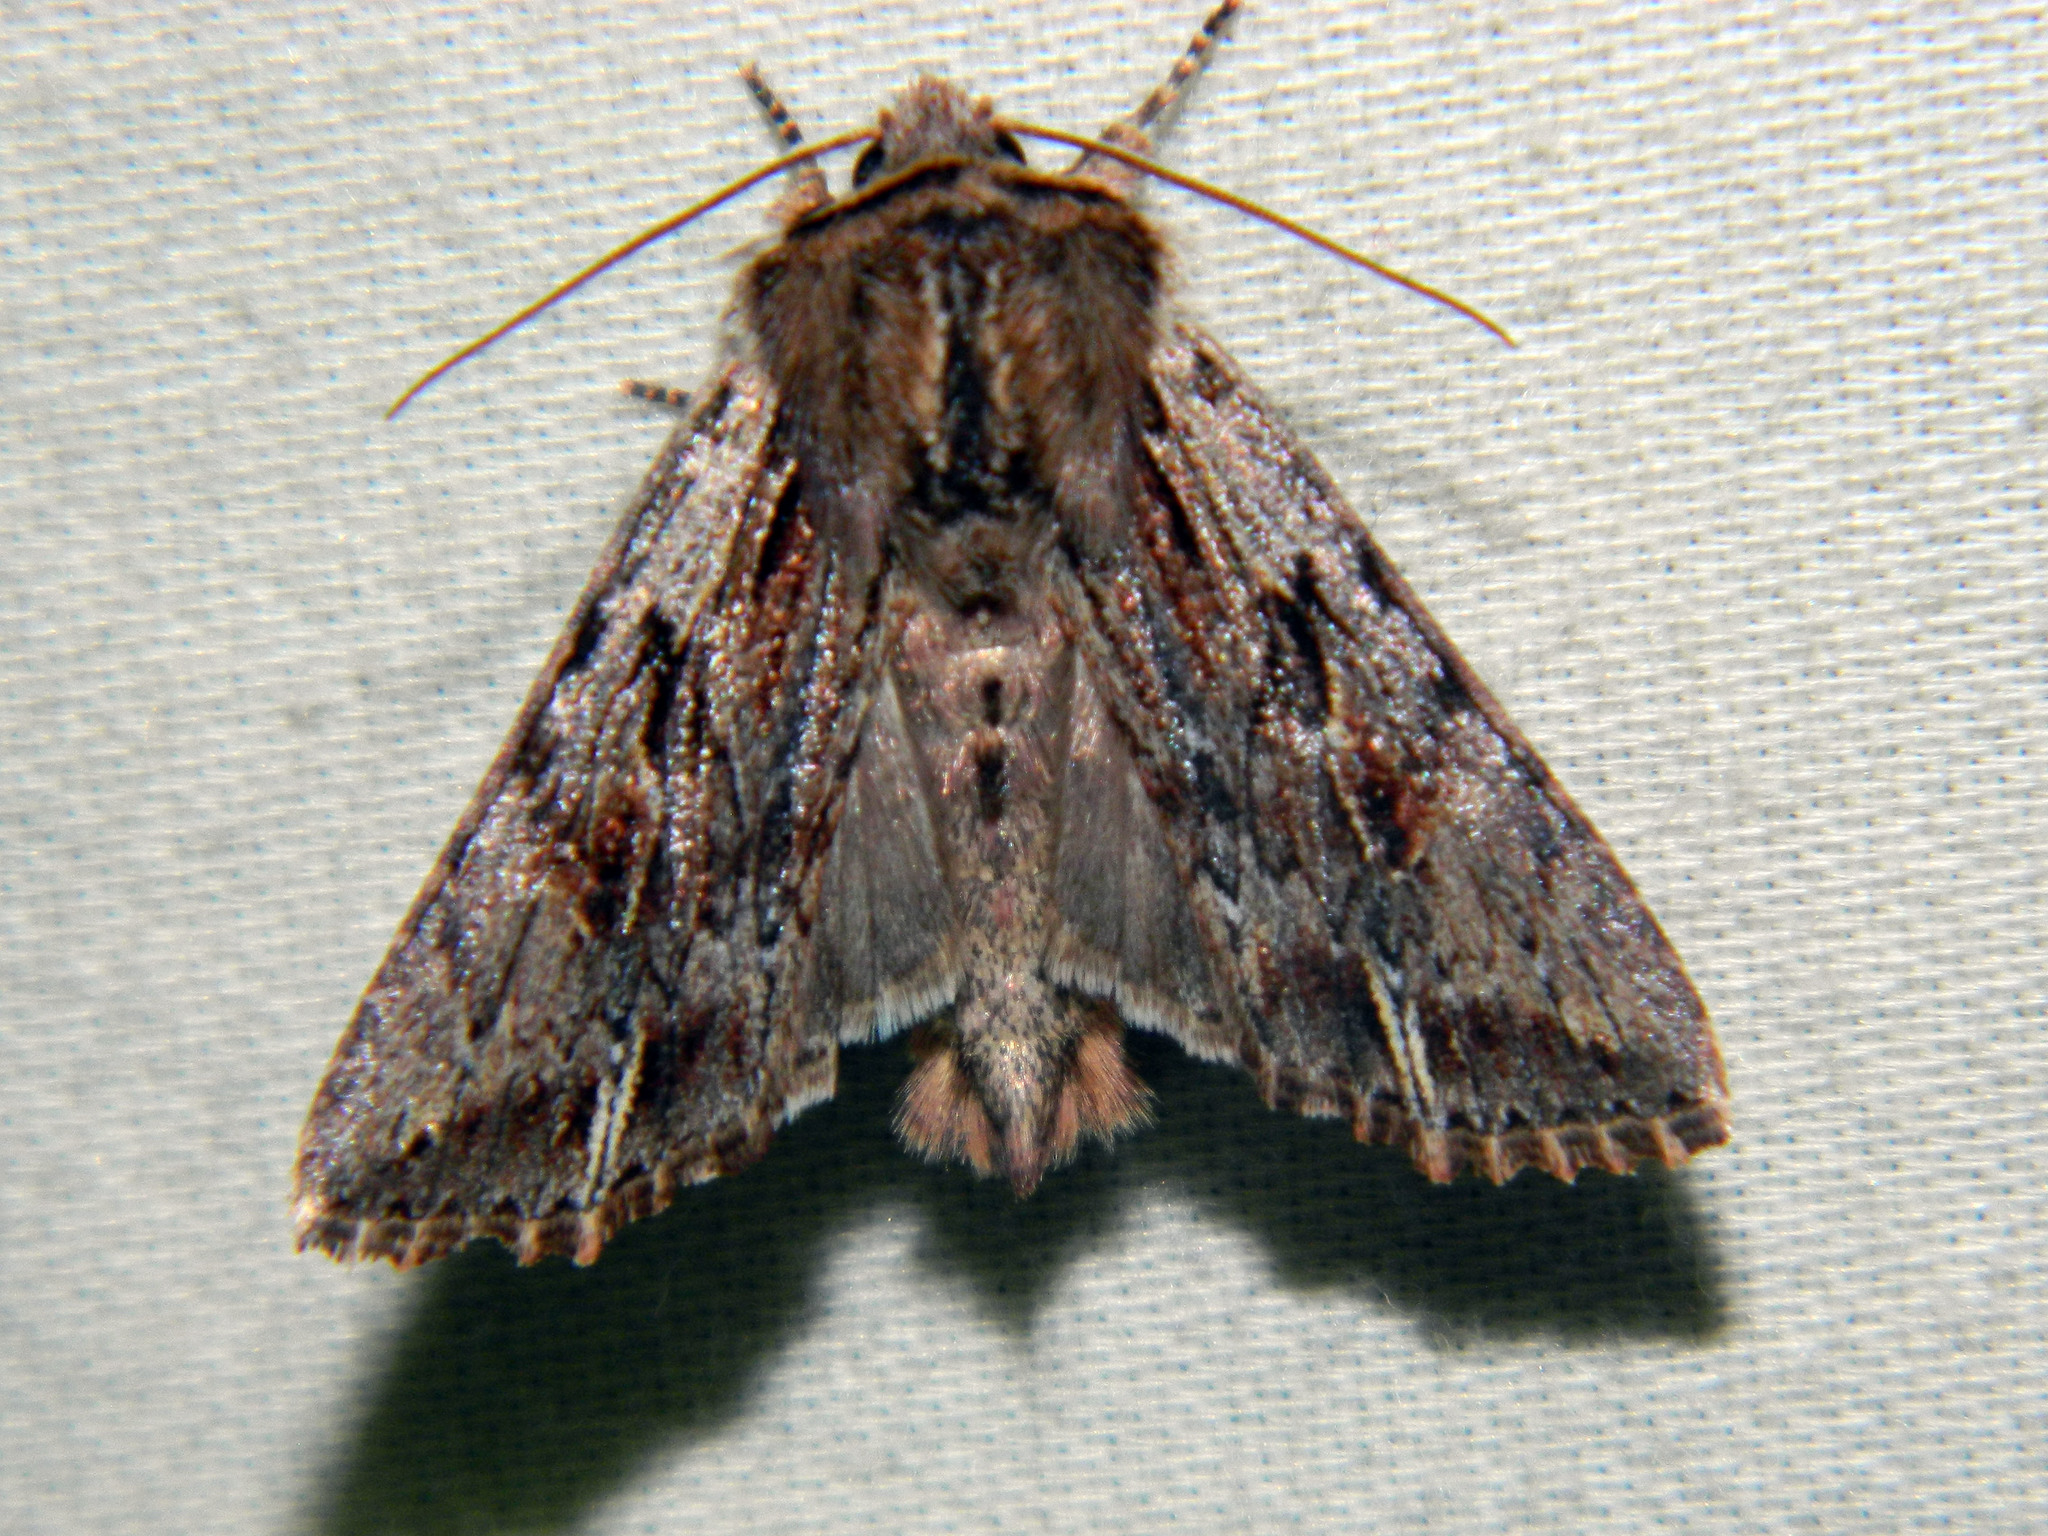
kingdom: Animalia
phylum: Arthropoda
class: Insecta
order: Lepidoptera
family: Noctuidae
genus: Achatia
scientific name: Achatia evicta
